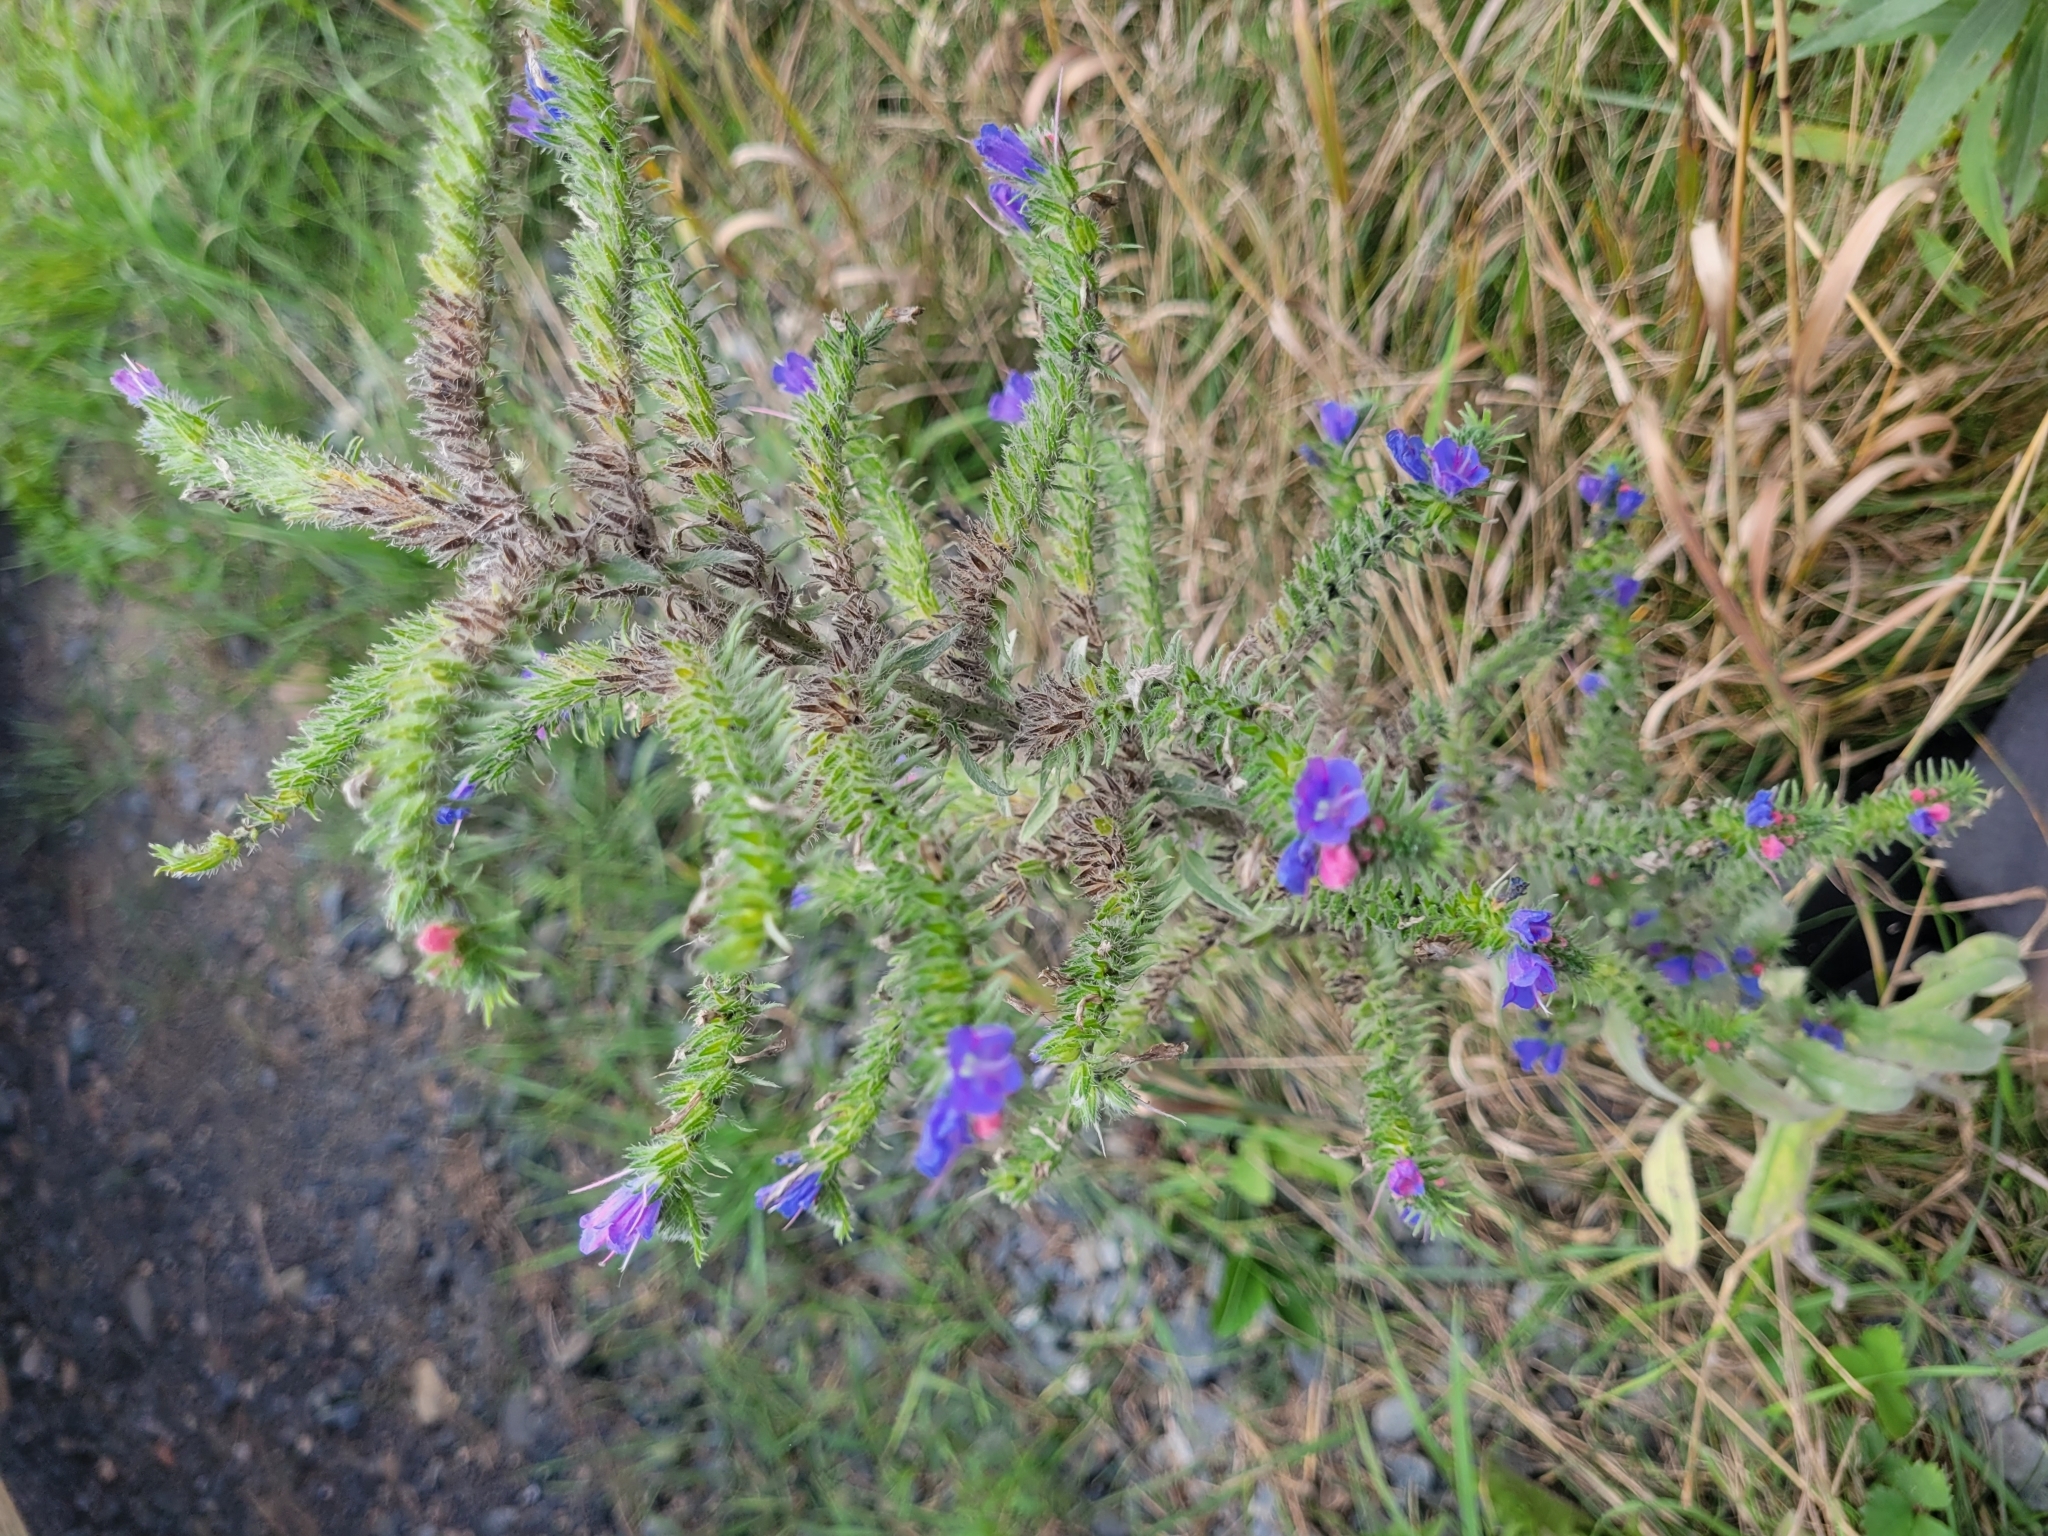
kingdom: Plantae
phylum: Tracheophyta
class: Magnoliopsida
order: Boraginales
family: Boraginaceae
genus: Echium
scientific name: Echium vulgare
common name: Common viper's bugloss
